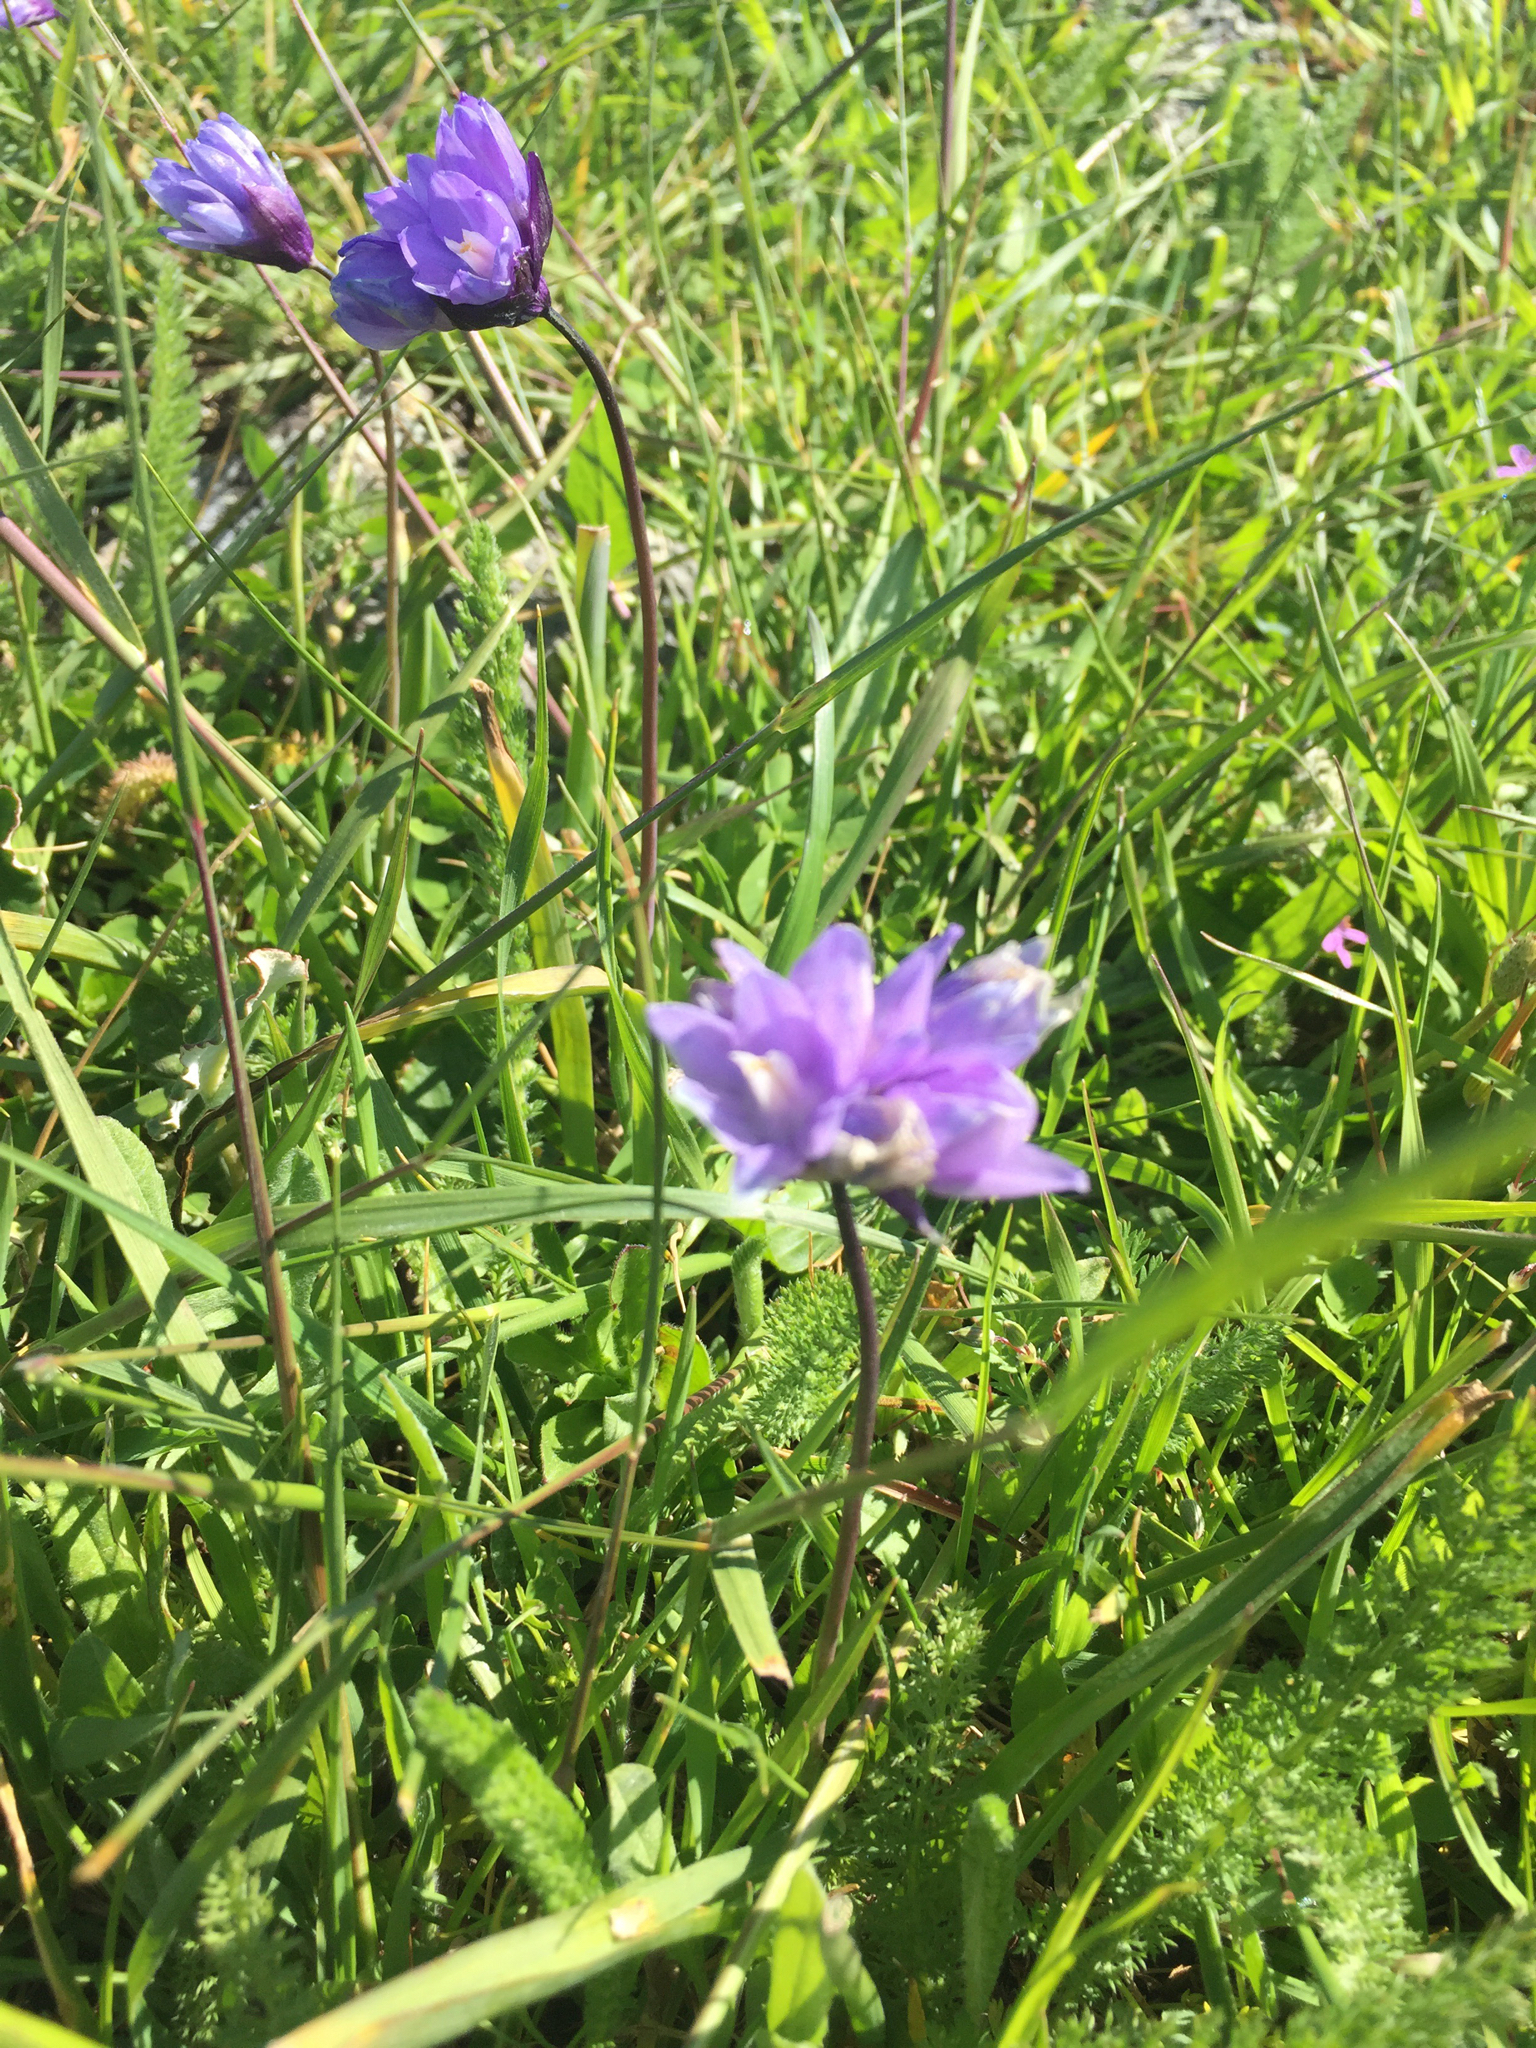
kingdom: Plantae
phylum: Tracheophyta
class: Liliopsida
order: Asparagales
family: Asparagaceae
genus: Dipterostemon
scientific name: Dipterostemon capitatus
